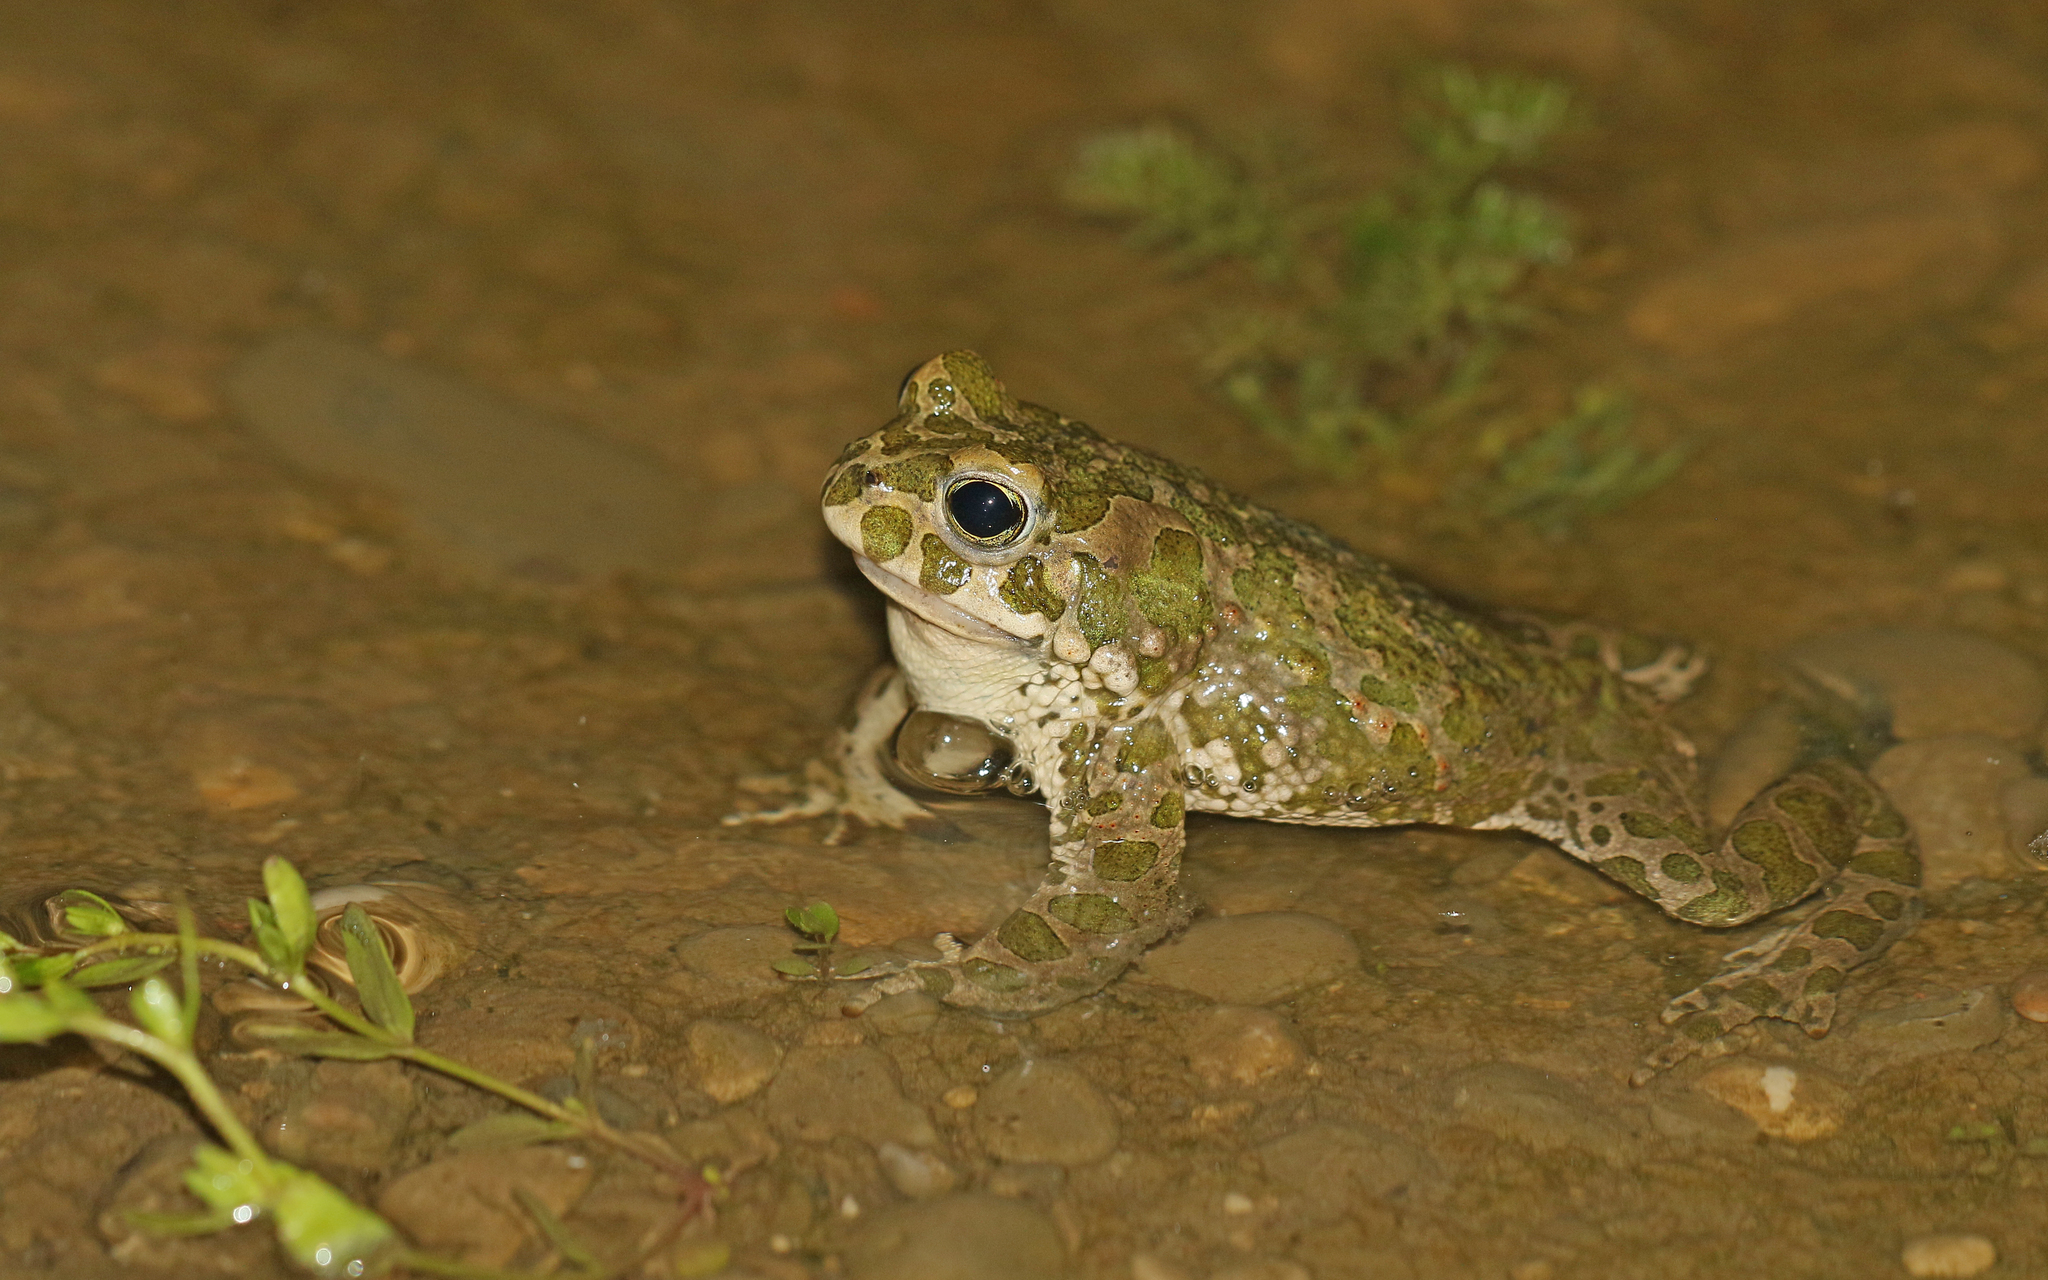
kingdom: Animalia
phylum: Chordata
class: Amphibia
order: Anura
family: Bufonidae
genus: Bufotes
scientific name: Bufotes viridis
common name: European green toad
